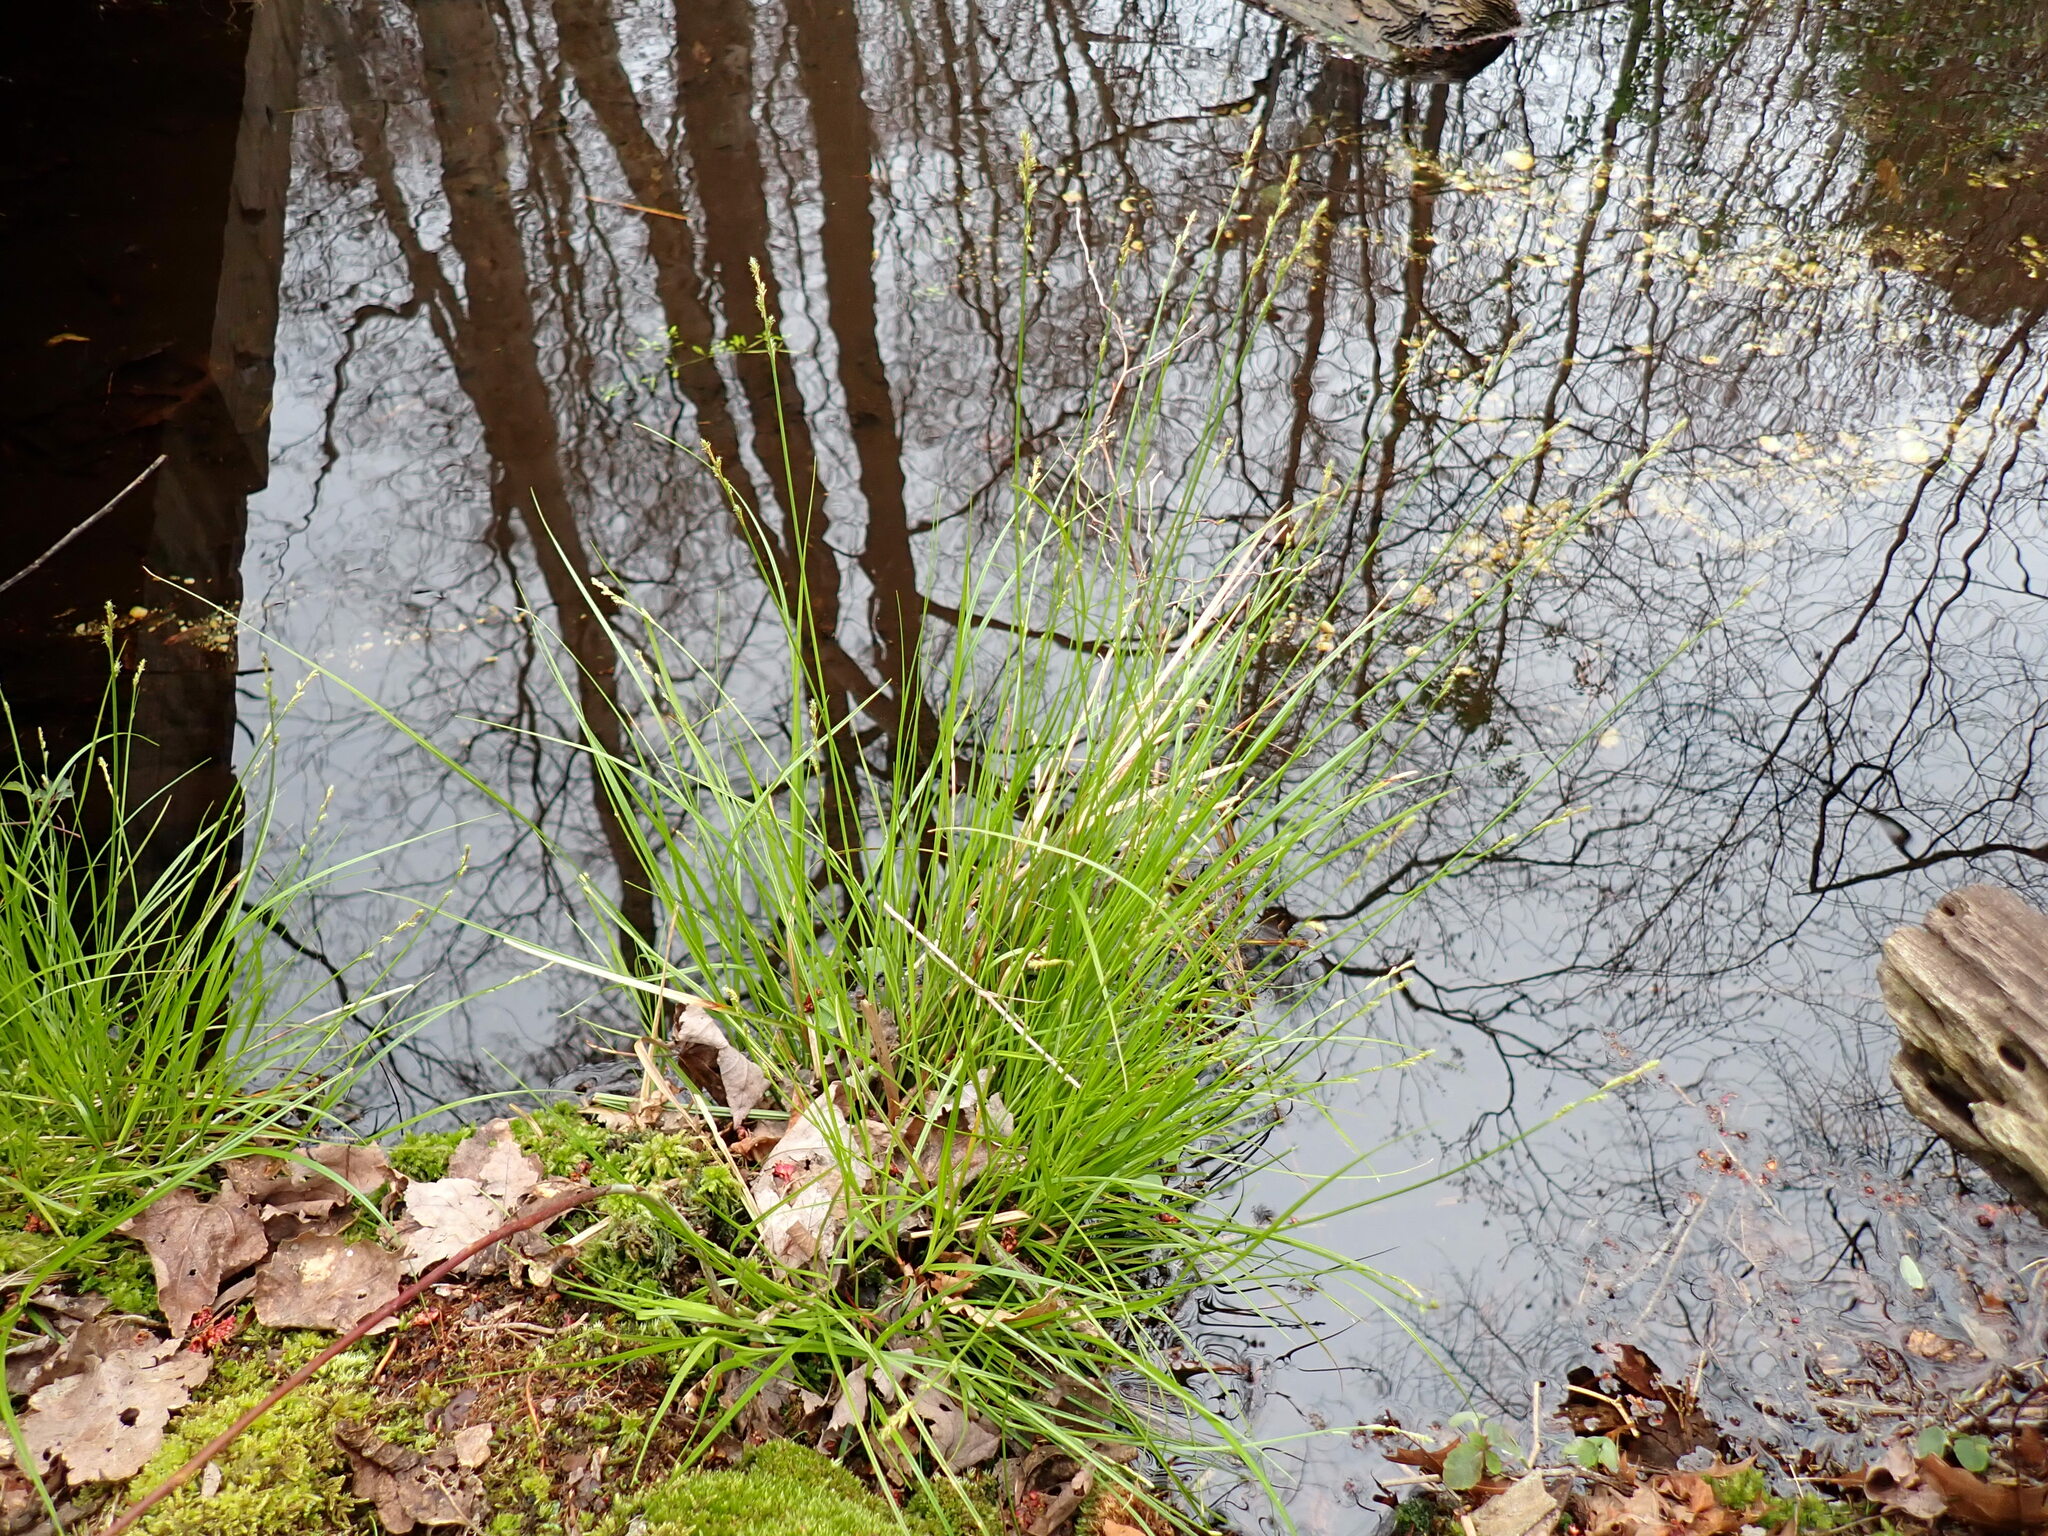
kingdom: Plantae
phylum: Tracheophyta
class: Liliopsida
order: Poales
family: Cyperaceae
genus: Carex
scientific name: Carex canescens
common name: White sedge
